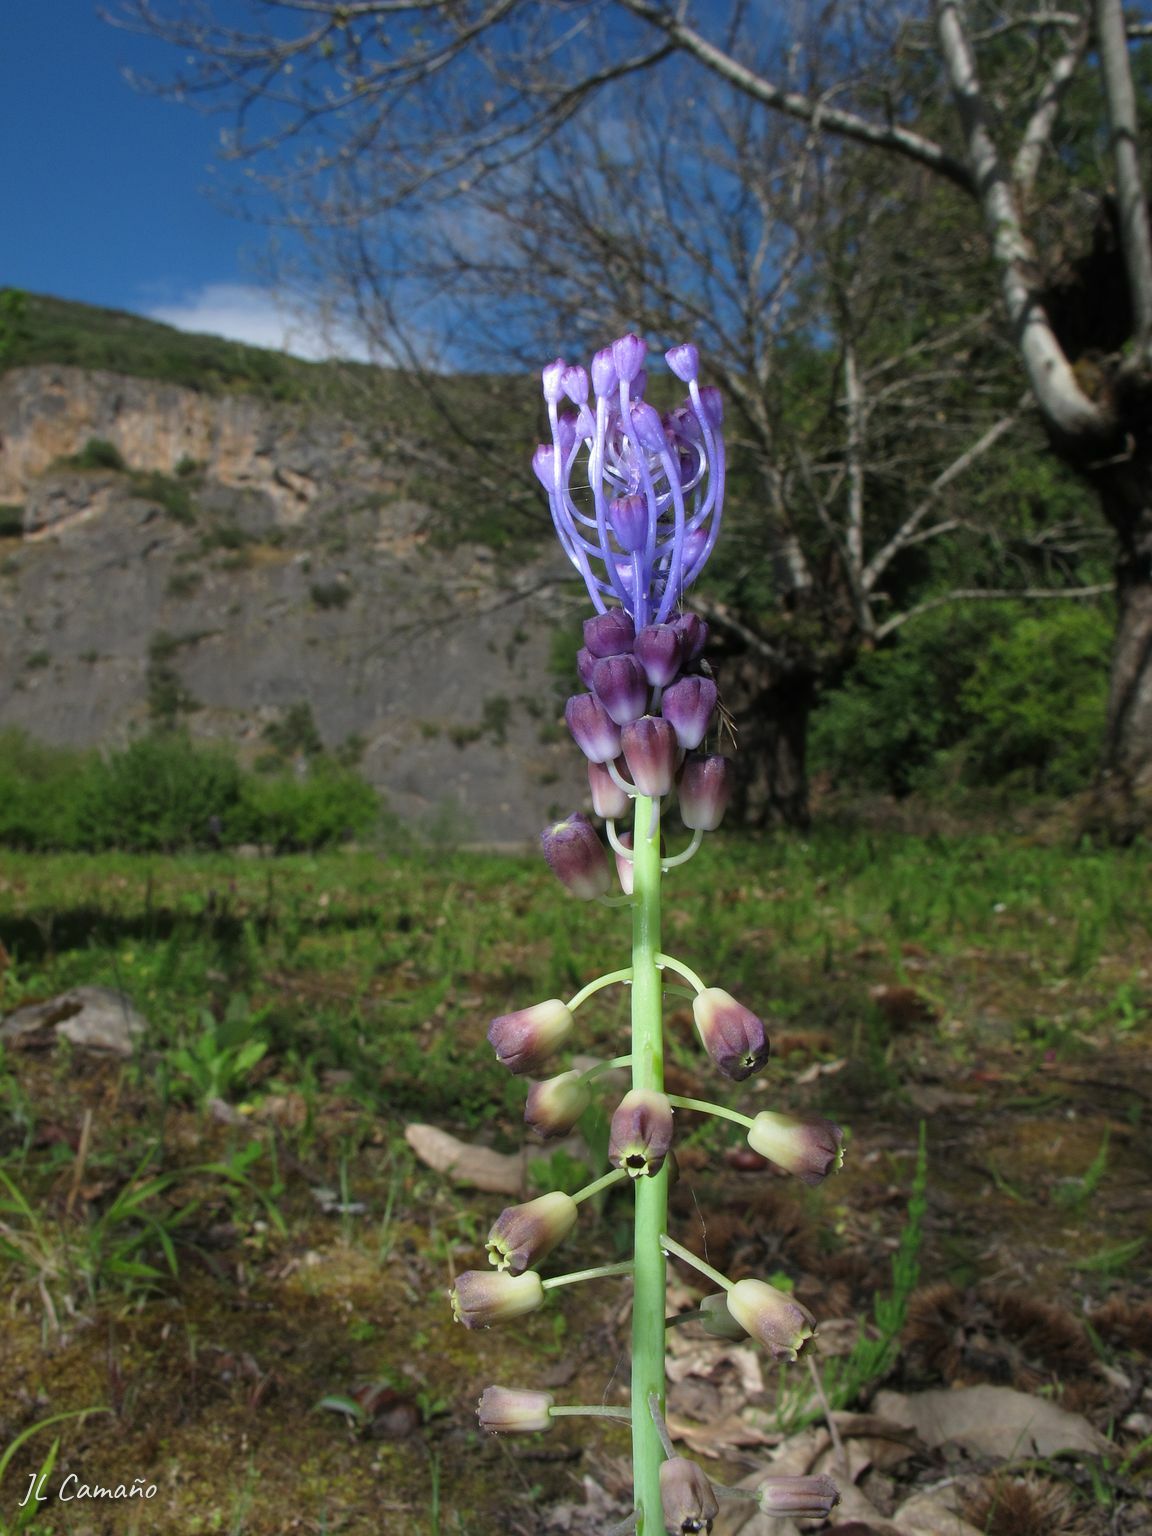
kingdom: Plantae
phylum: Tracheophyta
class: Liliopsida
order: Asparagales
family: Asparagaceae
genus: Muscari
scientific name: Muscari comosum
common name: Tassel hyacinth
